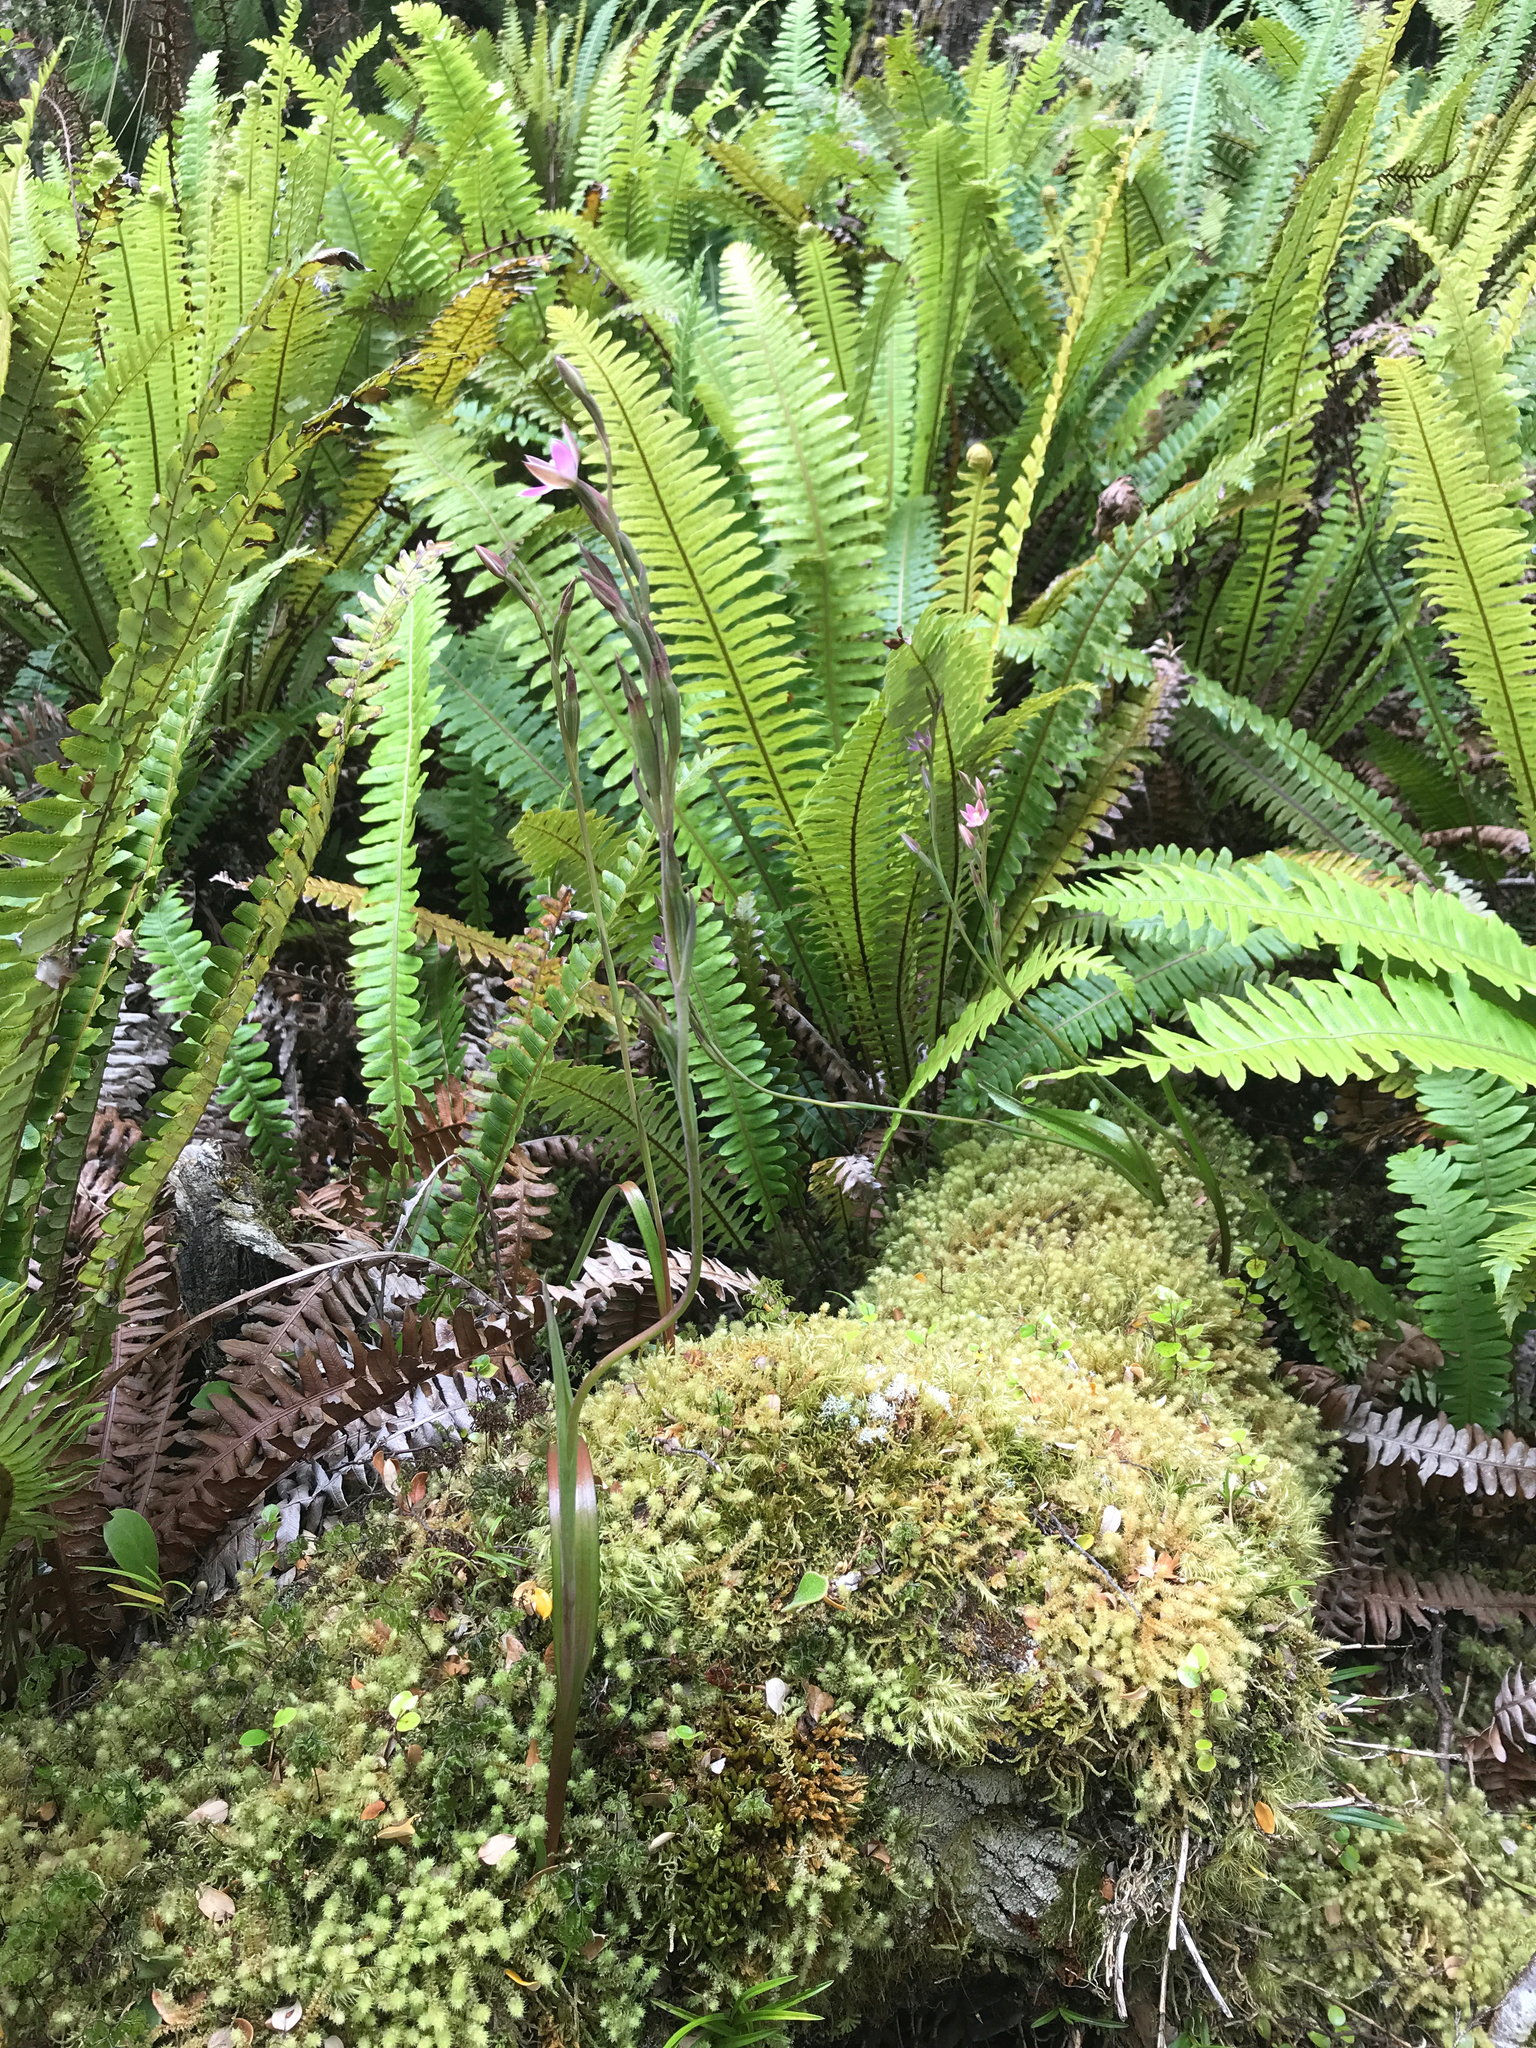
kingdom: Plantae
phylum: Tracheophyta
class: Liliopsida
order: Asparagales
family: Orchidaceae
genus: Thelymitra
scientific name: Thelymitra hatchii
